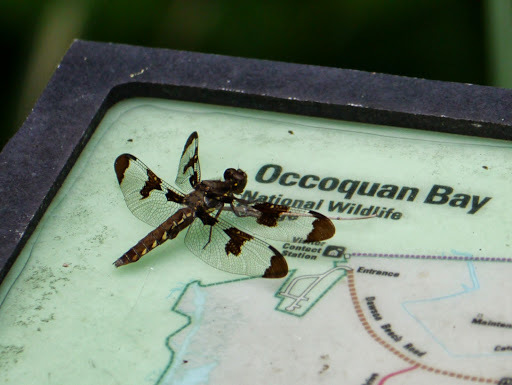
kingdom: Animalia
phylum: Arthropoda
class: Insecta
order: Odonata
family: Libellulidae
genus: Plathemis
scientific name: Plathemis lydia
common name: Common whitetail
